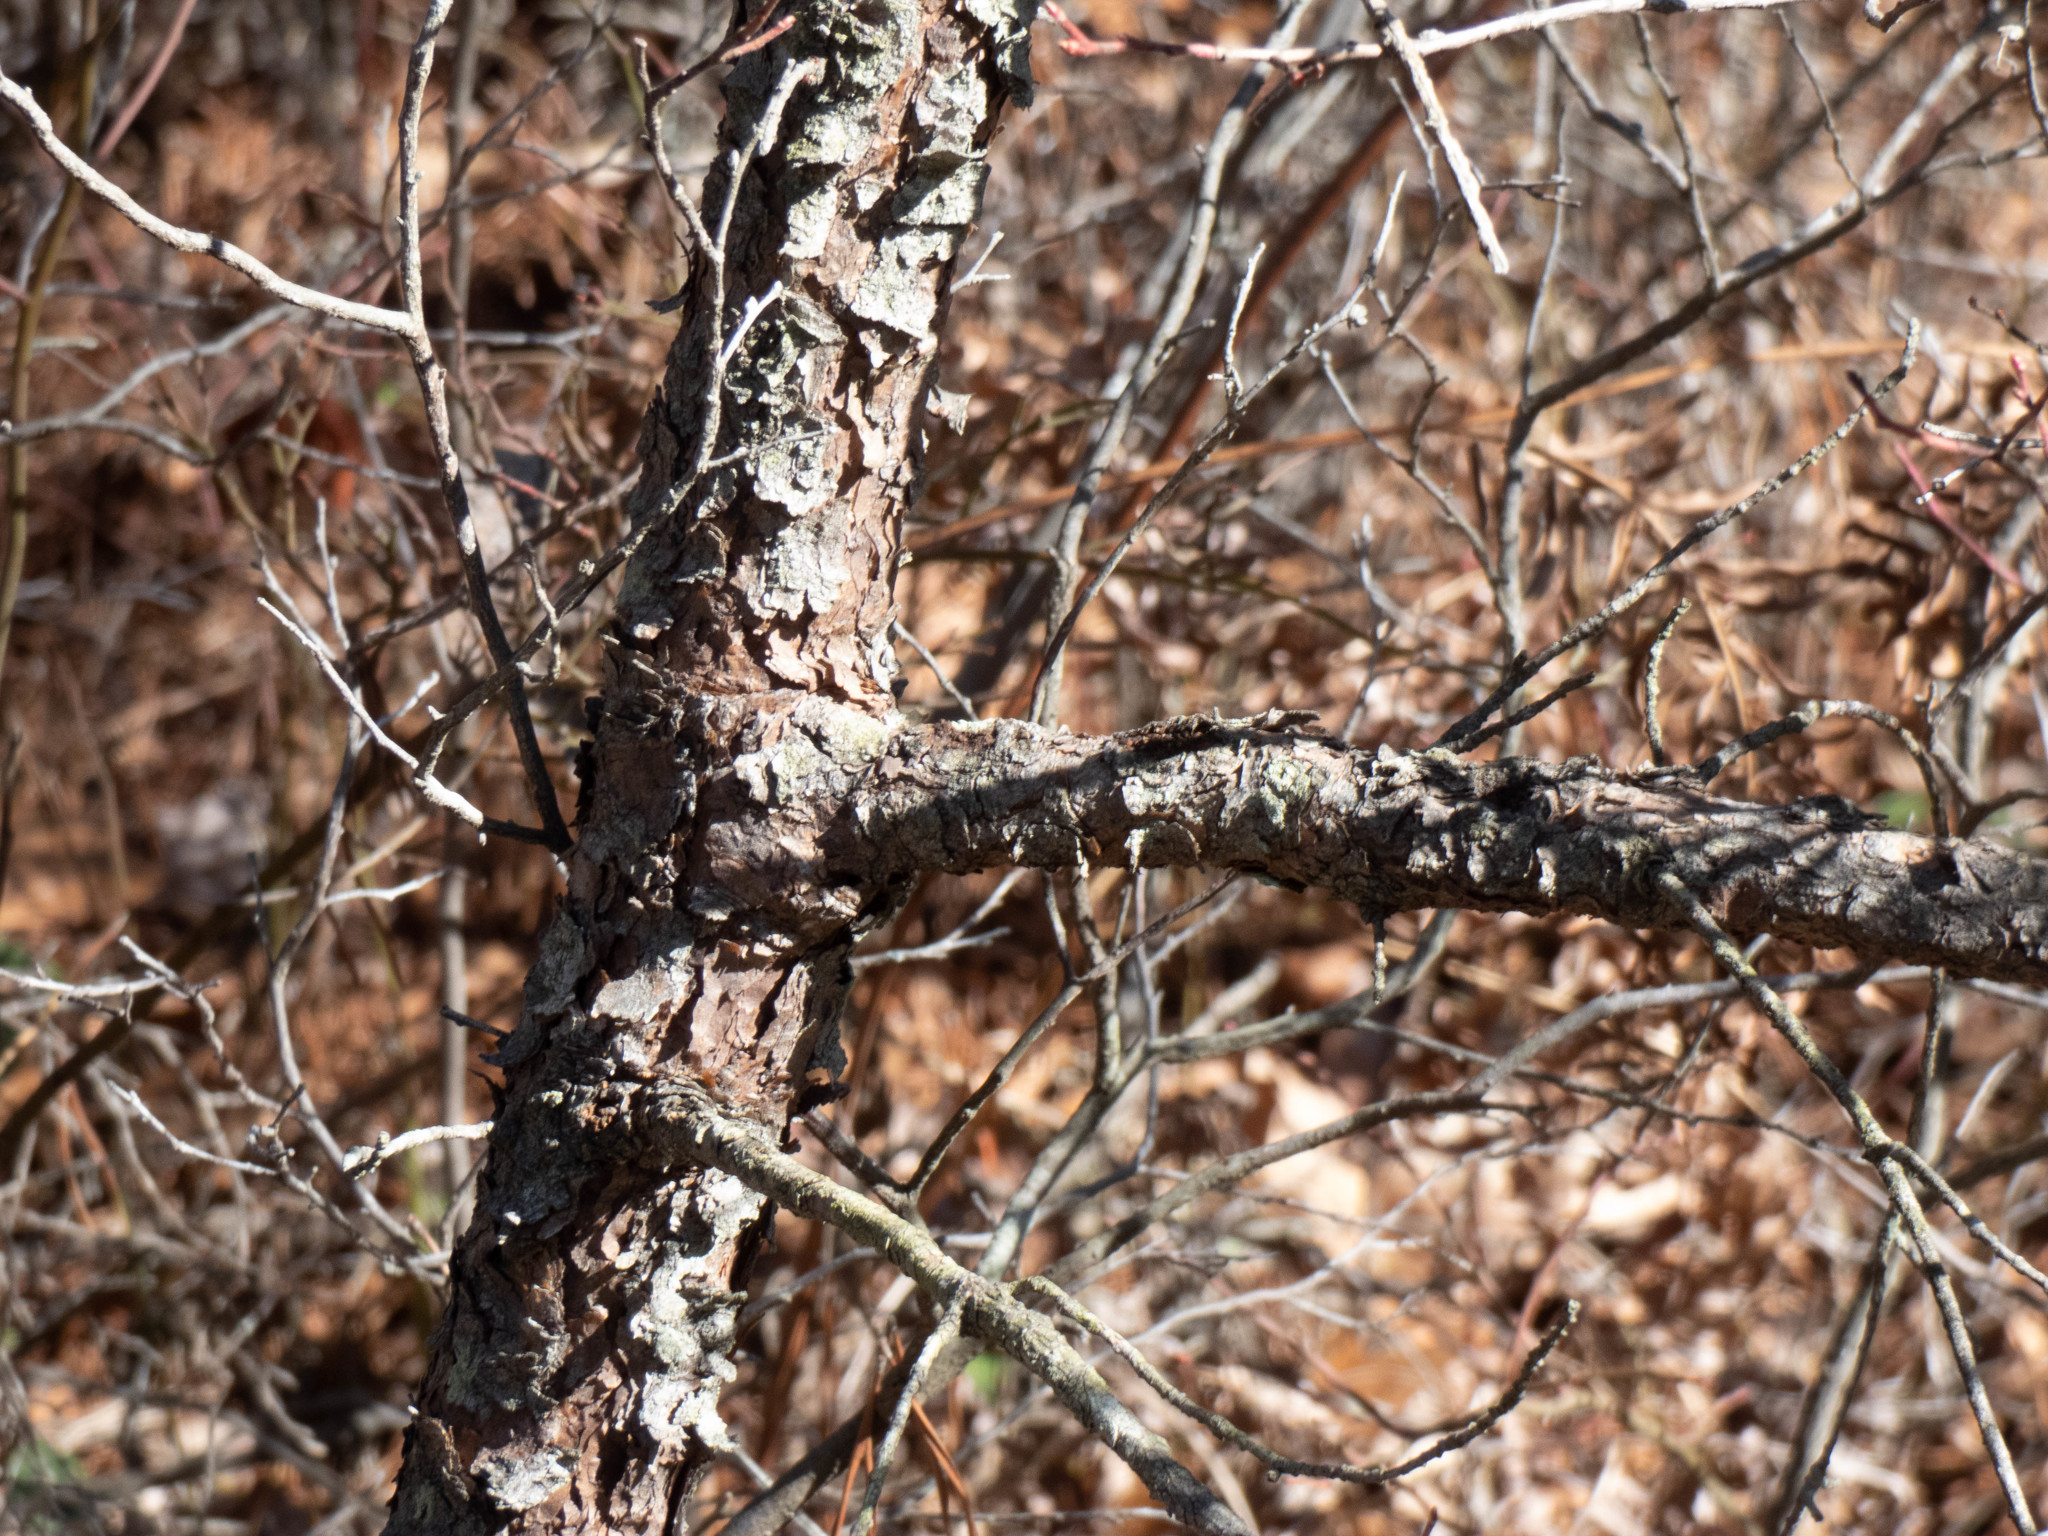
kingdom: Plantae
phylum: Tracheophyta
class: Pinopsida
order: Pinales
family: Pinaceae
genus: Pinus
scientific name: Pinus echinata
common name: Shortleaf pine
